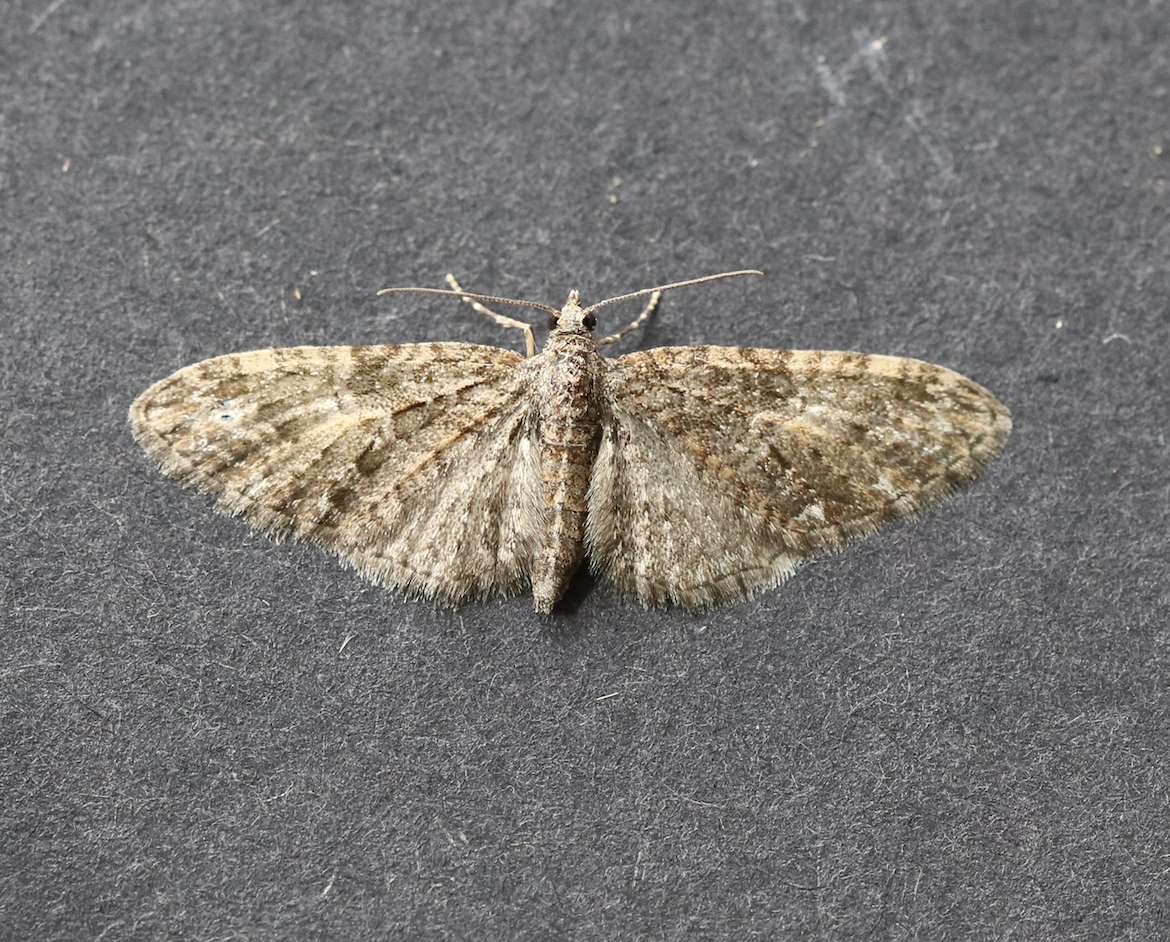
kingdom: Animalia
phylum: Arthropoda
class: Insecta
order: Lepidoptera
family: Geometridae
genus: Eupithecia
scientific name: Eupithecia abbreviata
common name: Brindled pug
